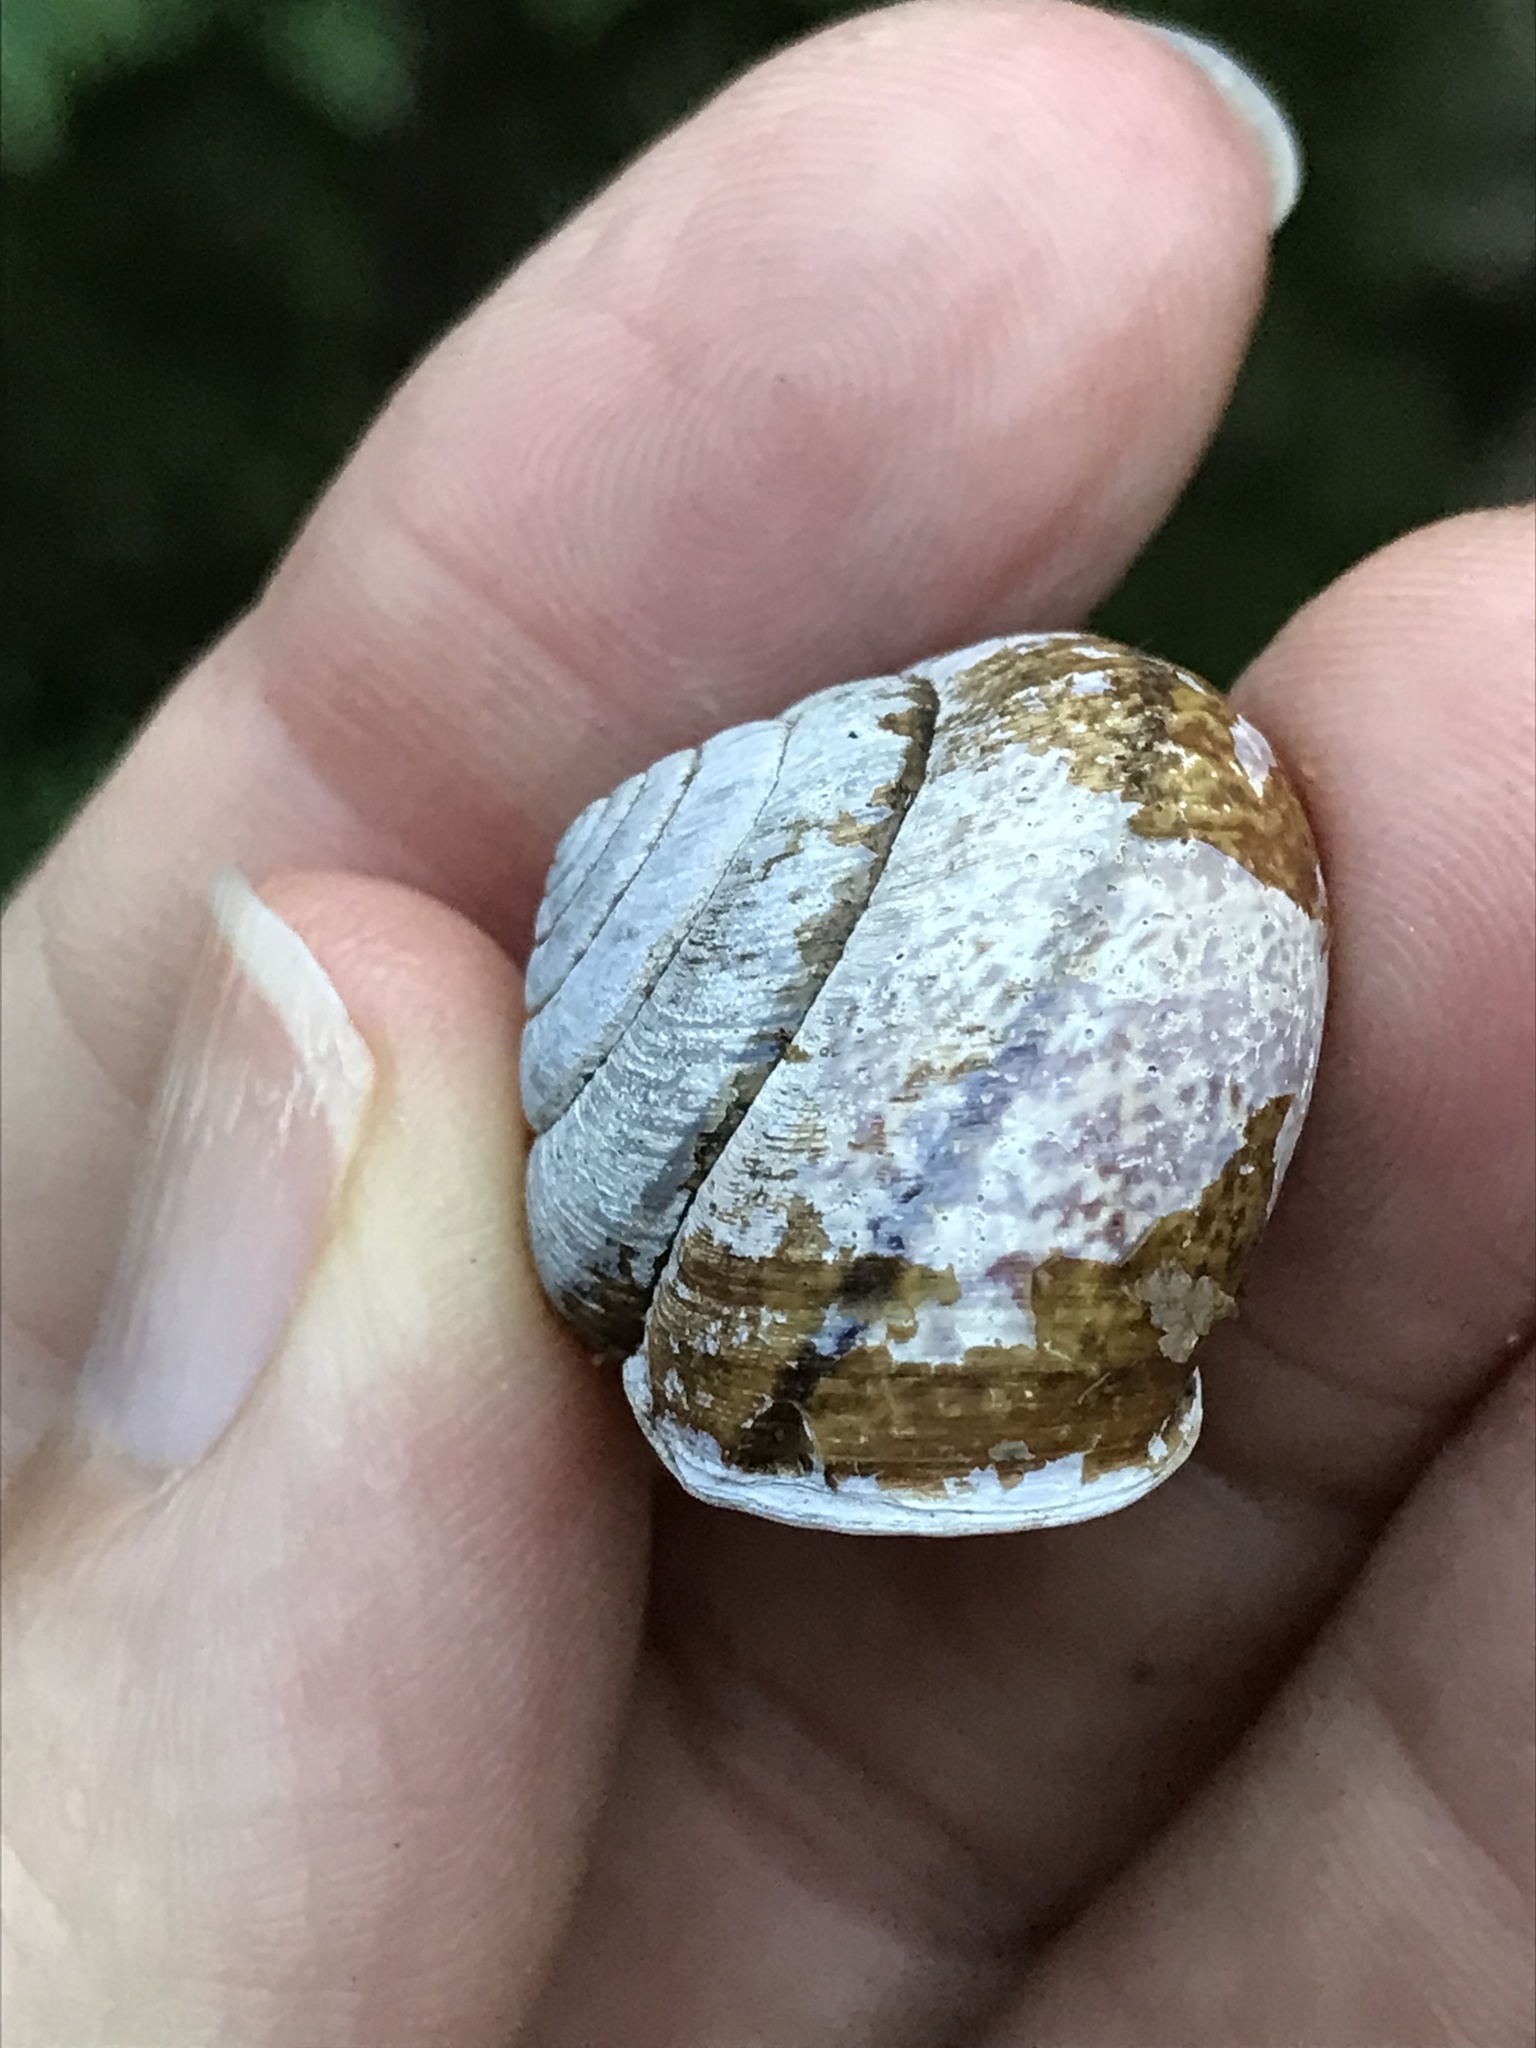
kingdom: Animalia
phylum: Mollusca
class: Gastropoda
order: Stylommatophora
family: Xanthonychidae
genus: Helminthoglypta
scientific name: Helminthoglypta arrosa
